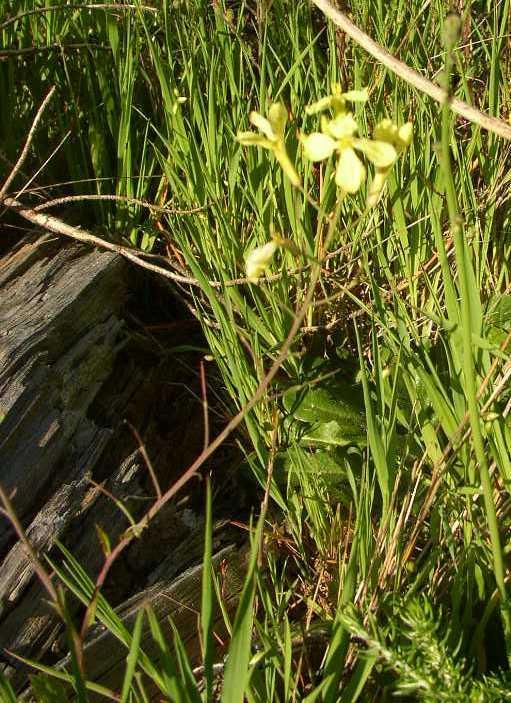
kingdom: Plantae
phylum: Tracheophyta
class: Magnoliopsida
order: Brassicales
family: Brassicaceae
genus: Raphanus
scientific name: Raphanus raphanistrum
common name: Wild radish
